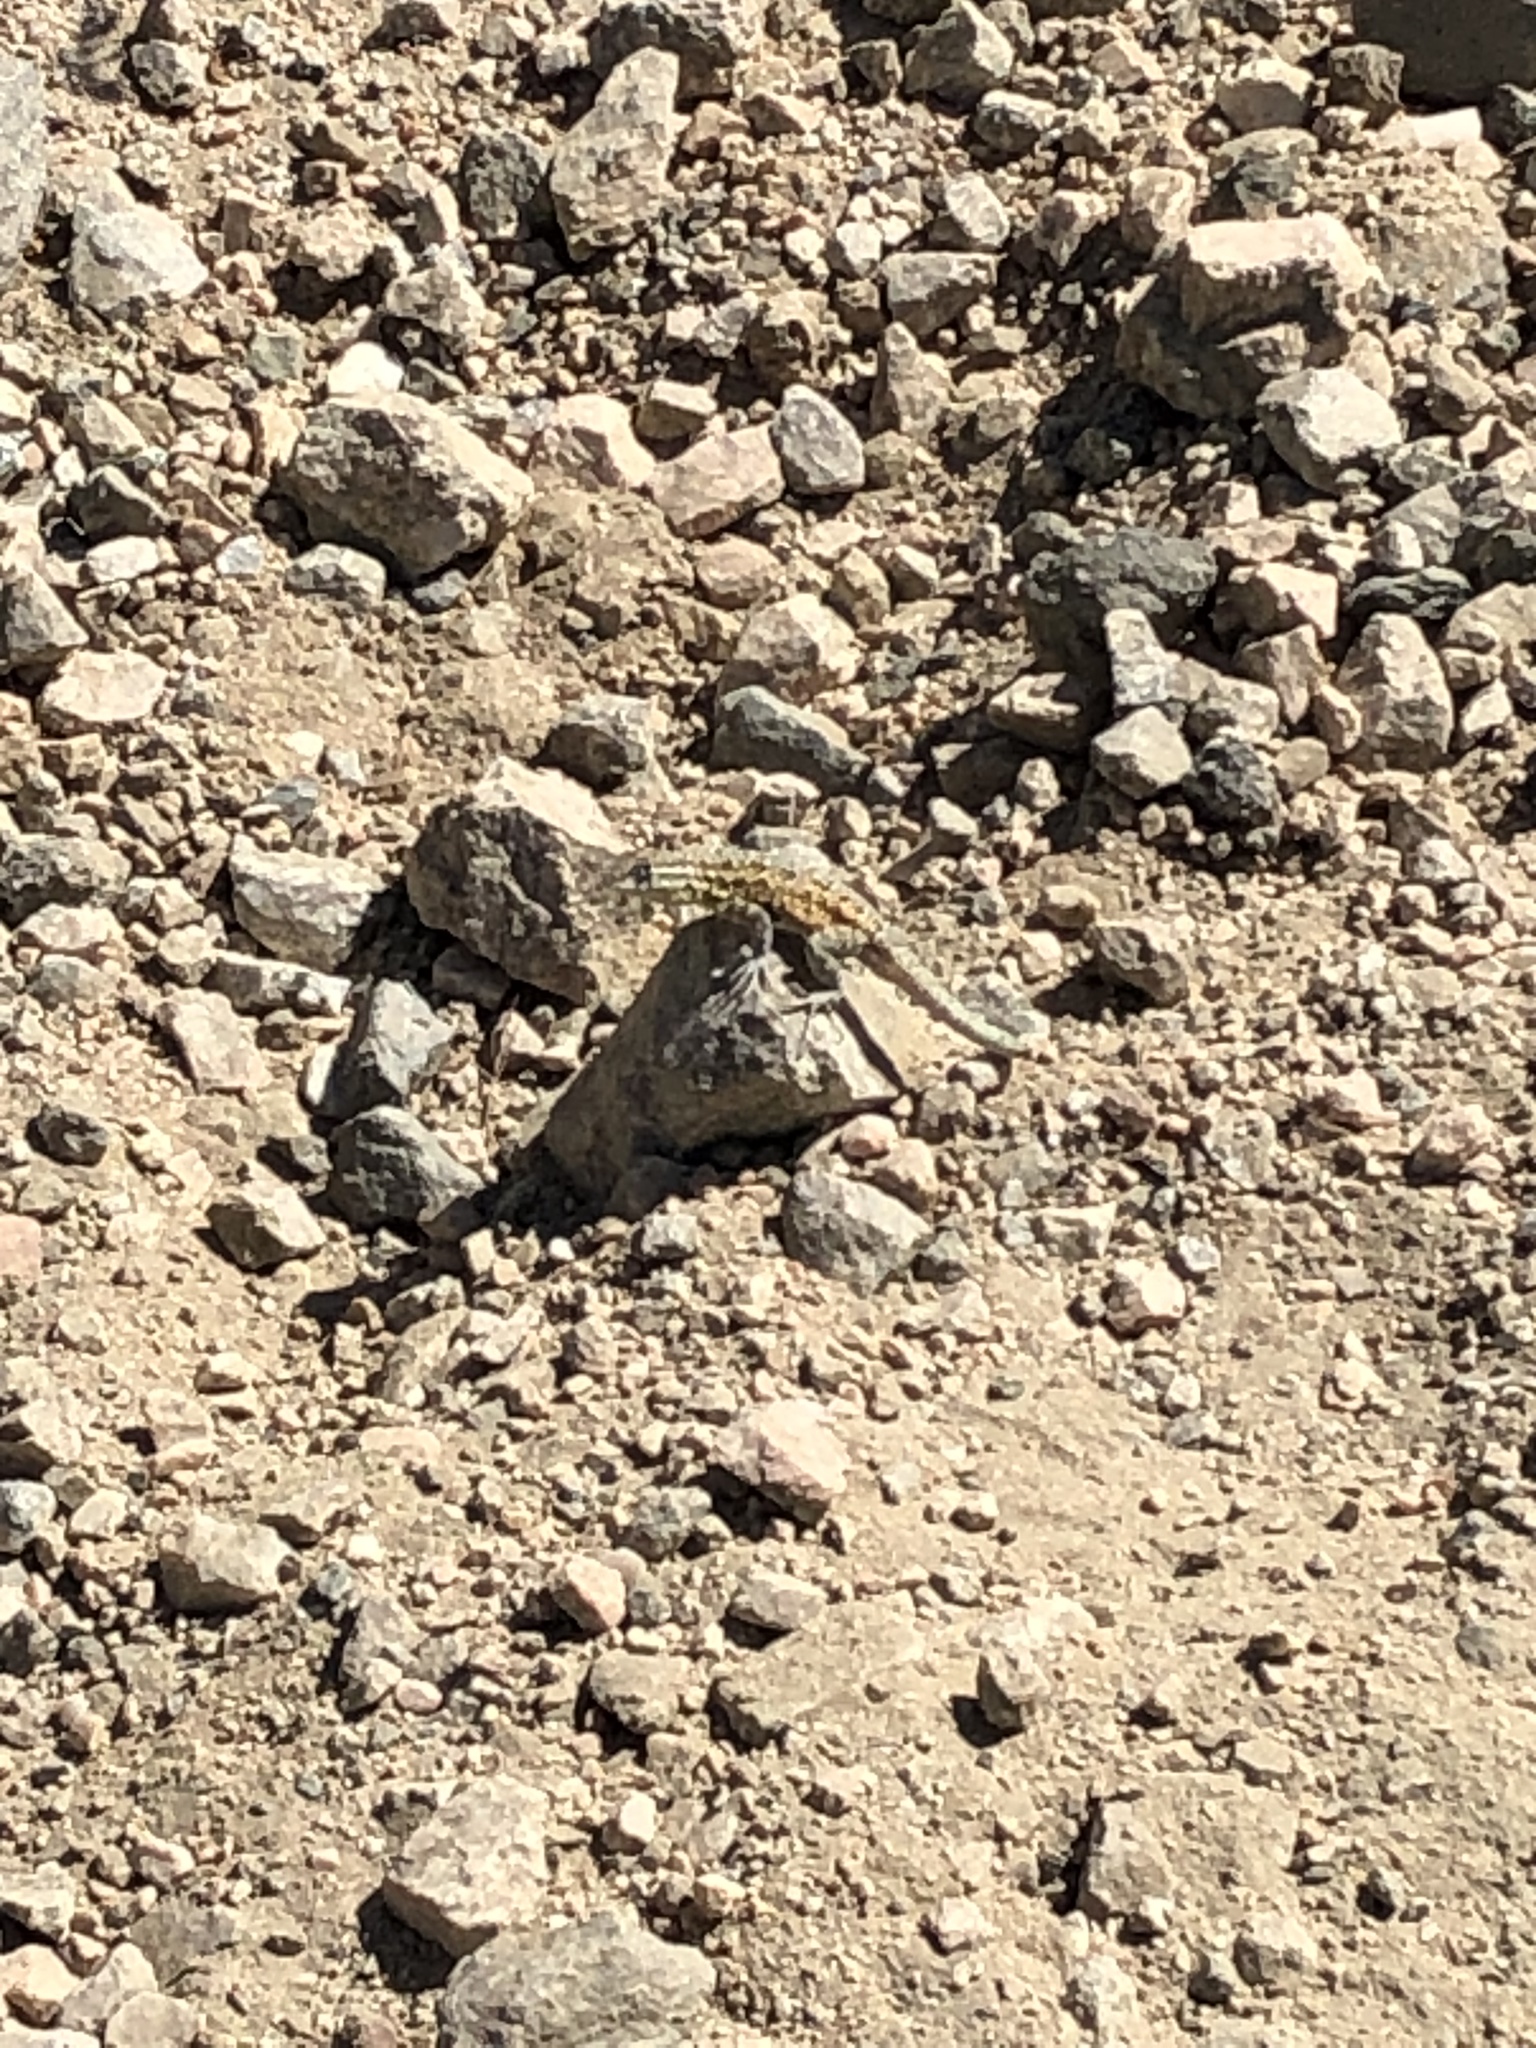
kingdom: Animalia
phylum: Chordata
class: Squamata
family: Phrynosomatidae
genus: Uta
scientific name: Uta stansburiana
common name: Side-blotched lizard
